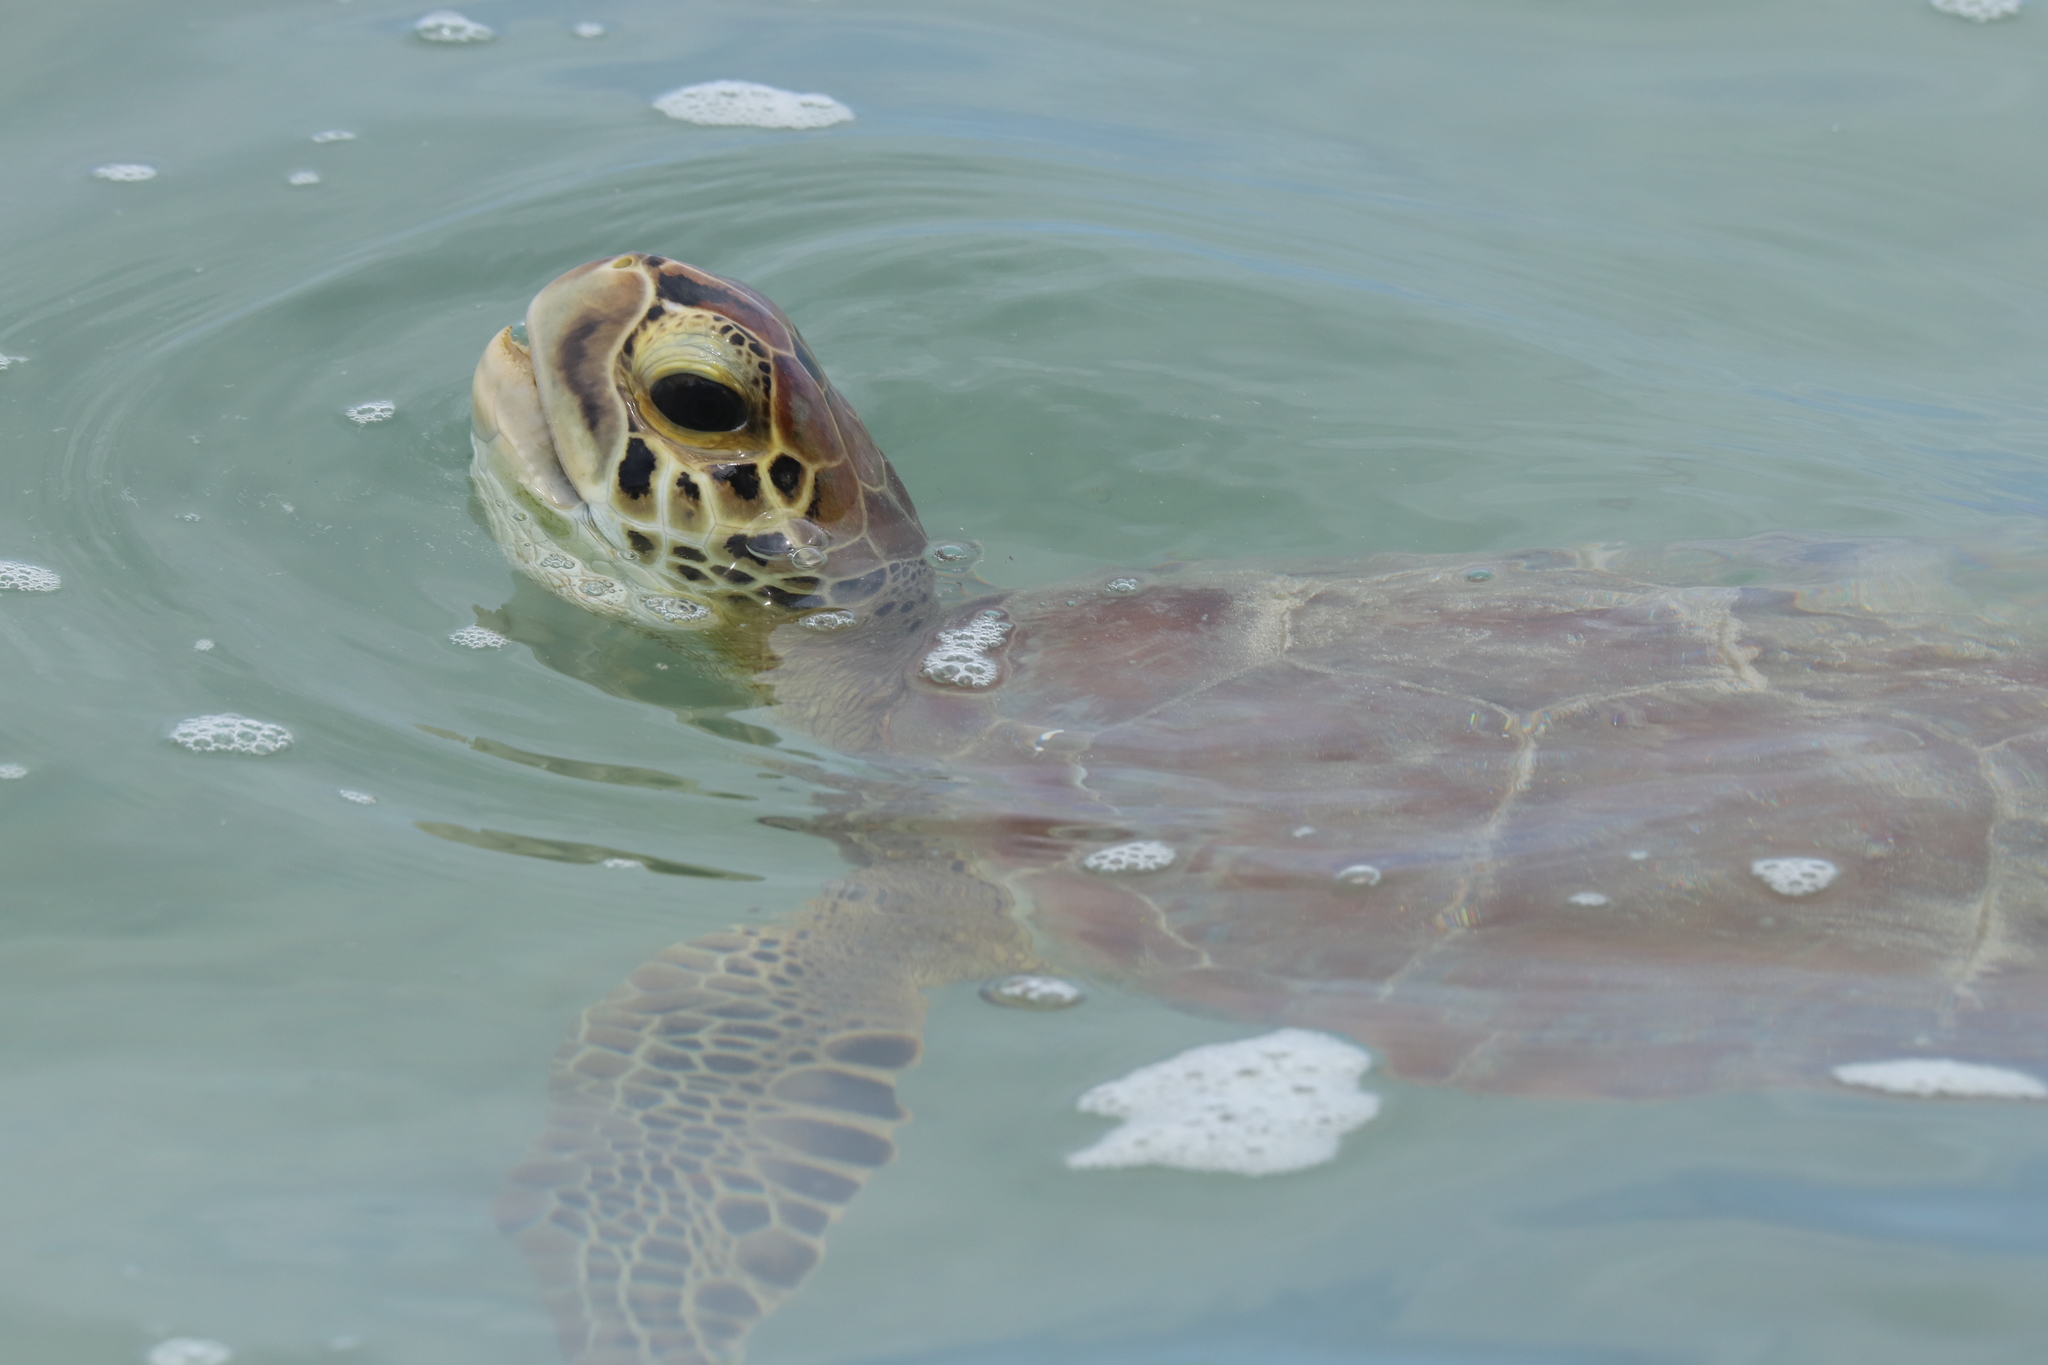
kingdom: Animalia
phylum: Chordata
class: Testudines
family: Cheloniidae
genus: Chelonia
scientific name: Chelonia mydas
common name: Green turtle
